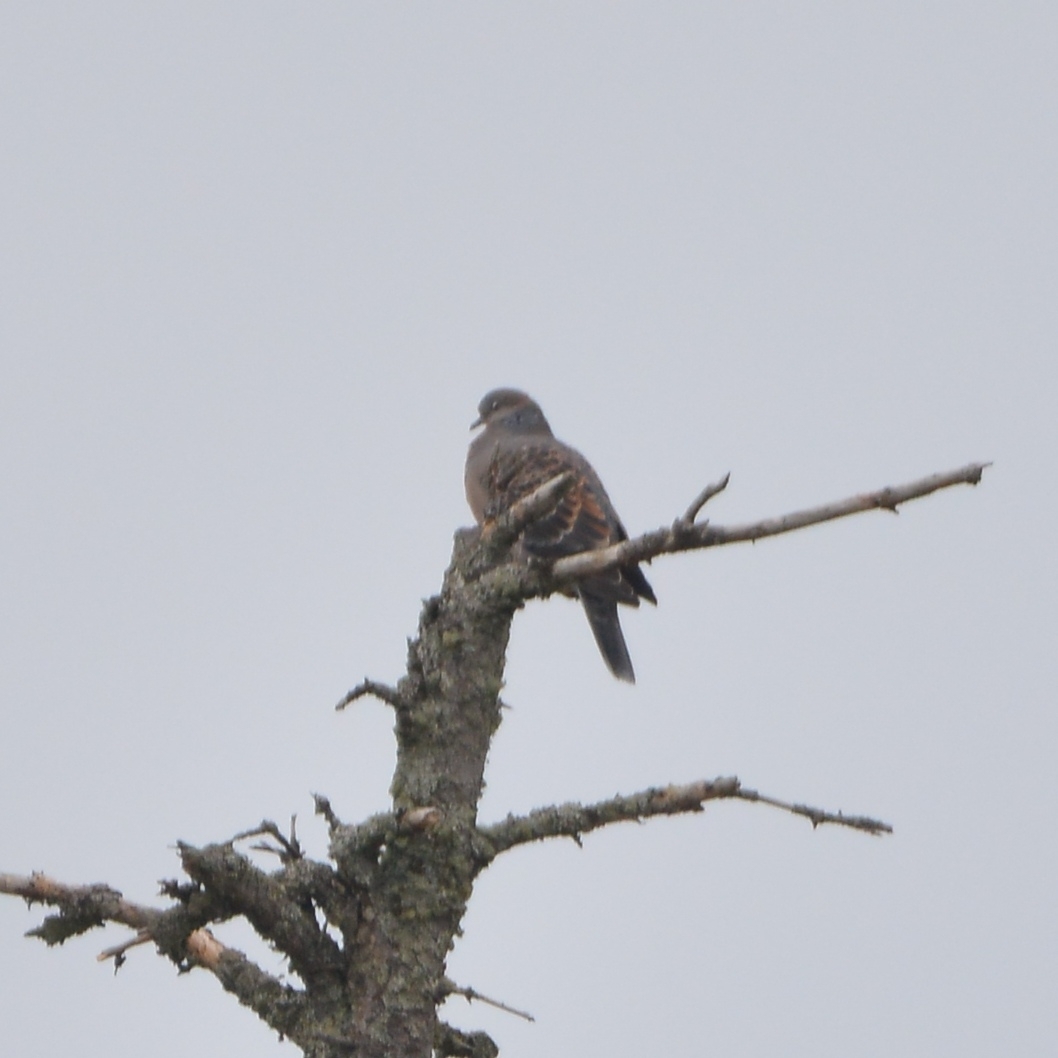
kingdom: Animalia
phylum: Chordata
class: Aves
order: Columbiformes
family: Columbidae
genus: Streptopelia
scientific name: Streptopelia orientalis
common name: Oriental turtle dove
